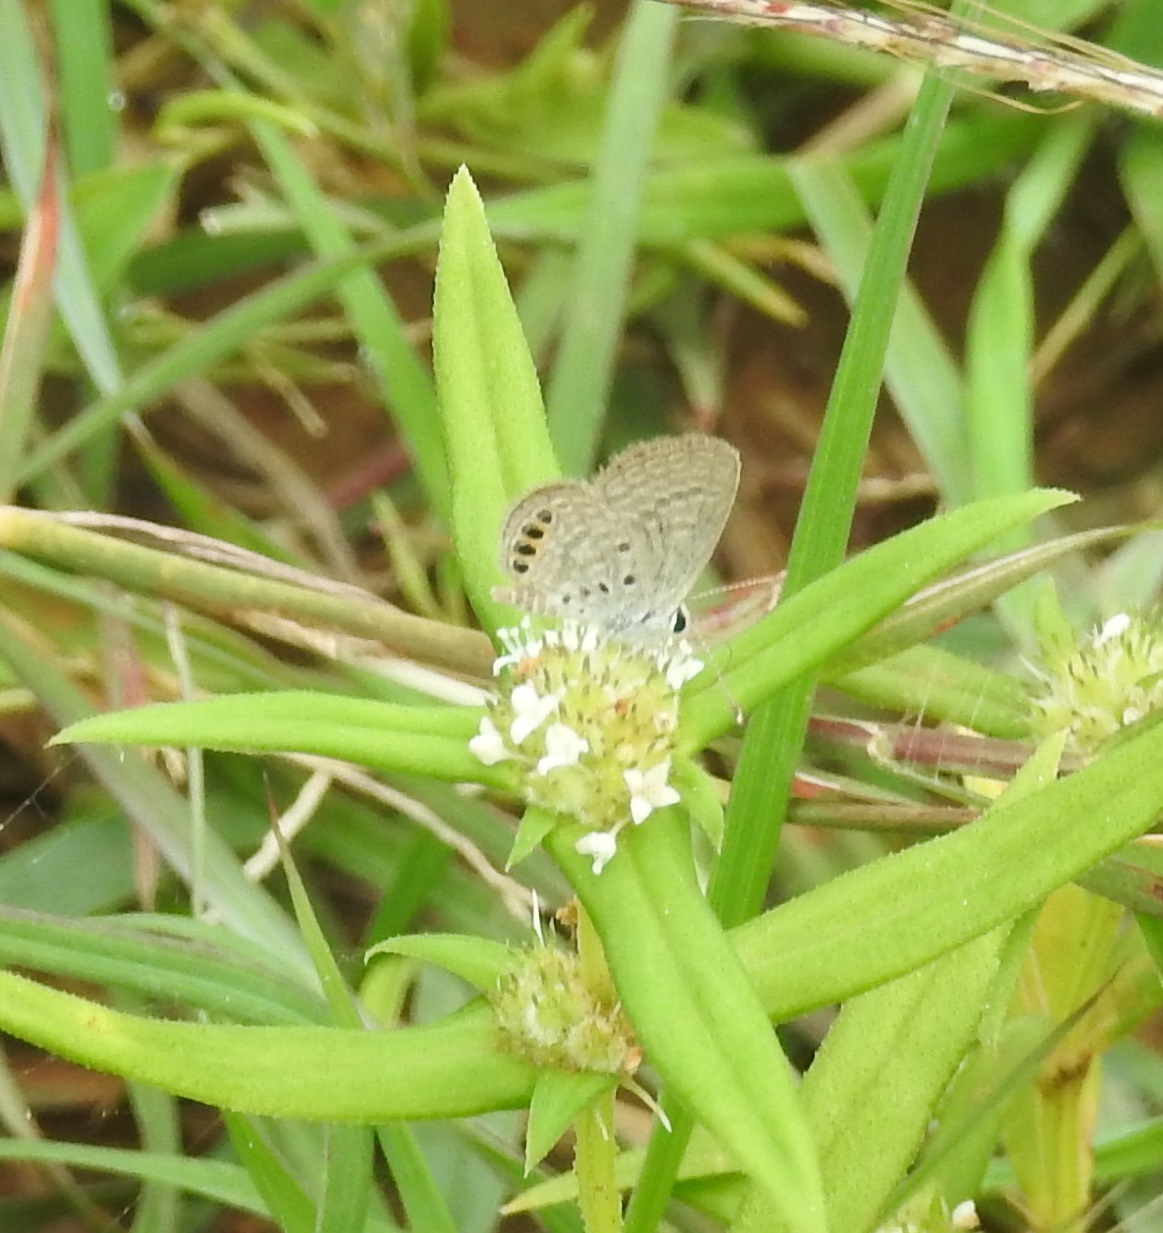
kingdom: Animalia
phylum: Arthropoda
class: Insecta
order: Lepidoptera
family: Lycaenidae
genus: Freyeria
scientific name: Freyeria putli
